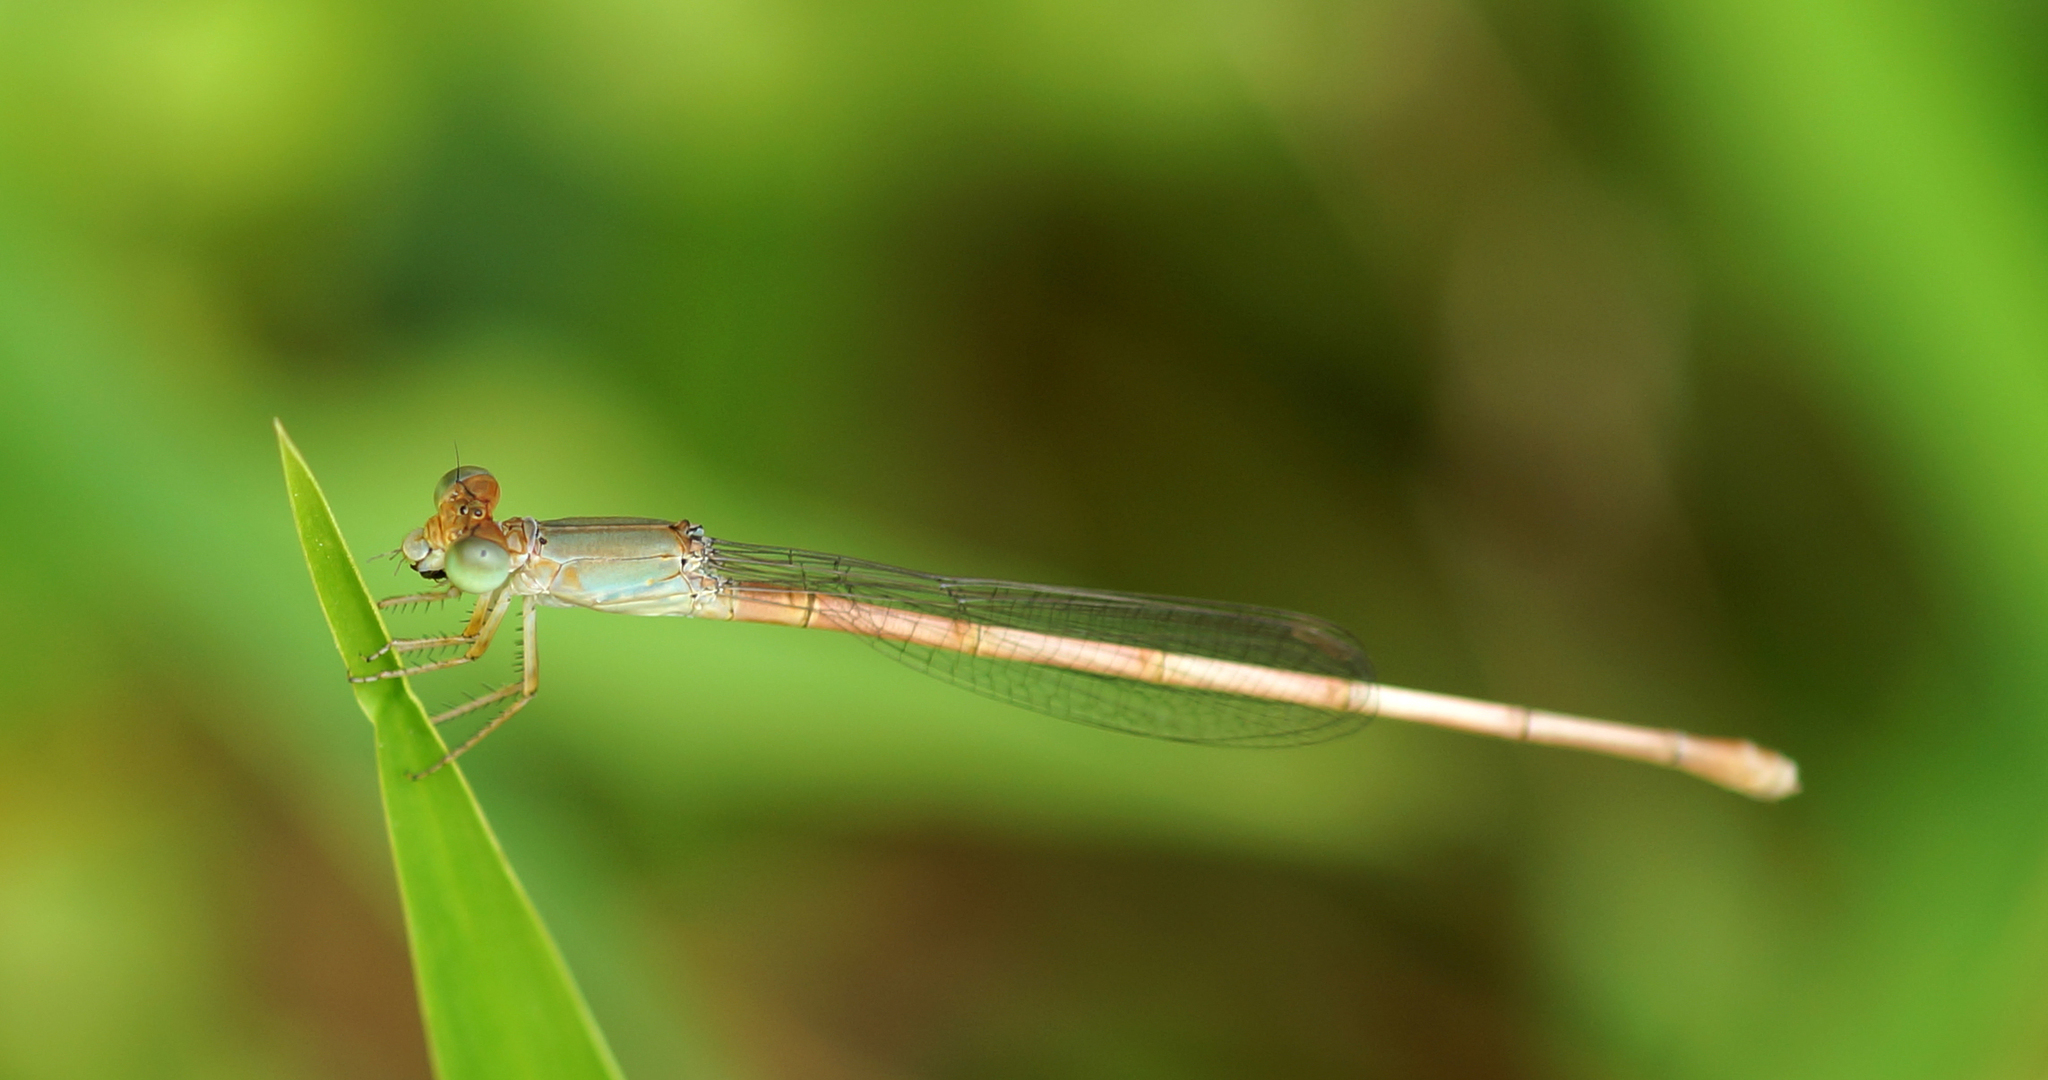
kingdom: Animalia
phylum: Arthropoda
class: Insecta
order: Odonata
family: Coenagrionidae
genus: Ceriagrion
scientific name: Ceriagrion olivaceum
